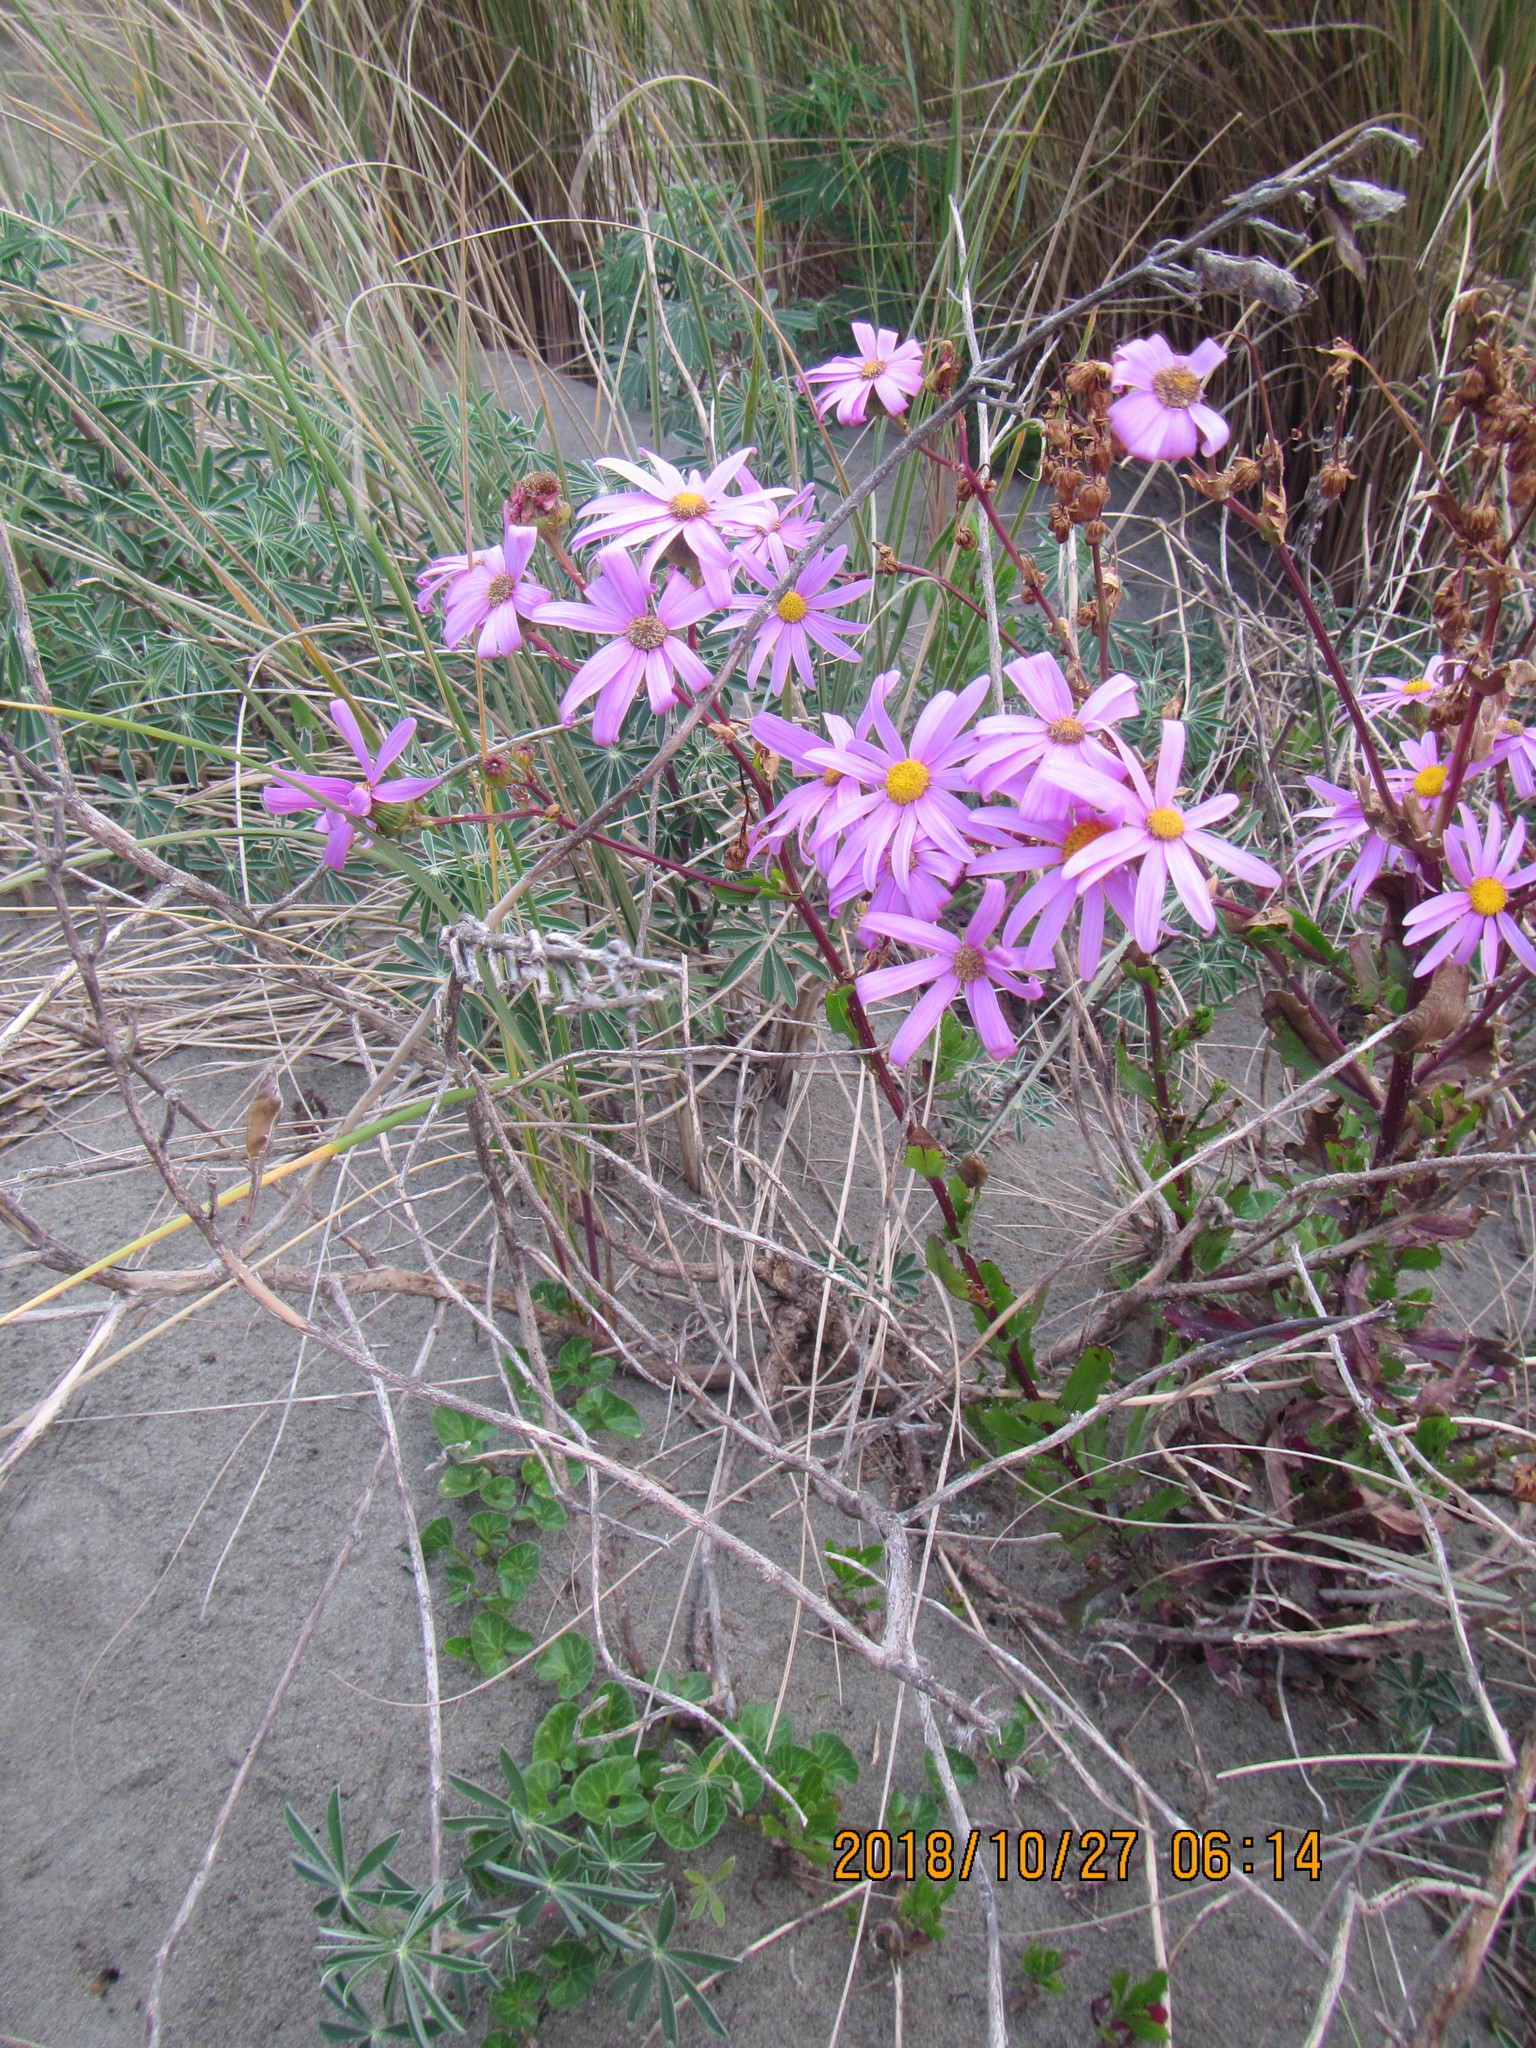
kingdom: Plantae
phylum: Tracheophyta
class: Magnoliopsida
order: Asterales
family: Asteraceae
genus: Senecio
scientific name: Senecio glastifolius
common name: Woad-leaved ragwort
